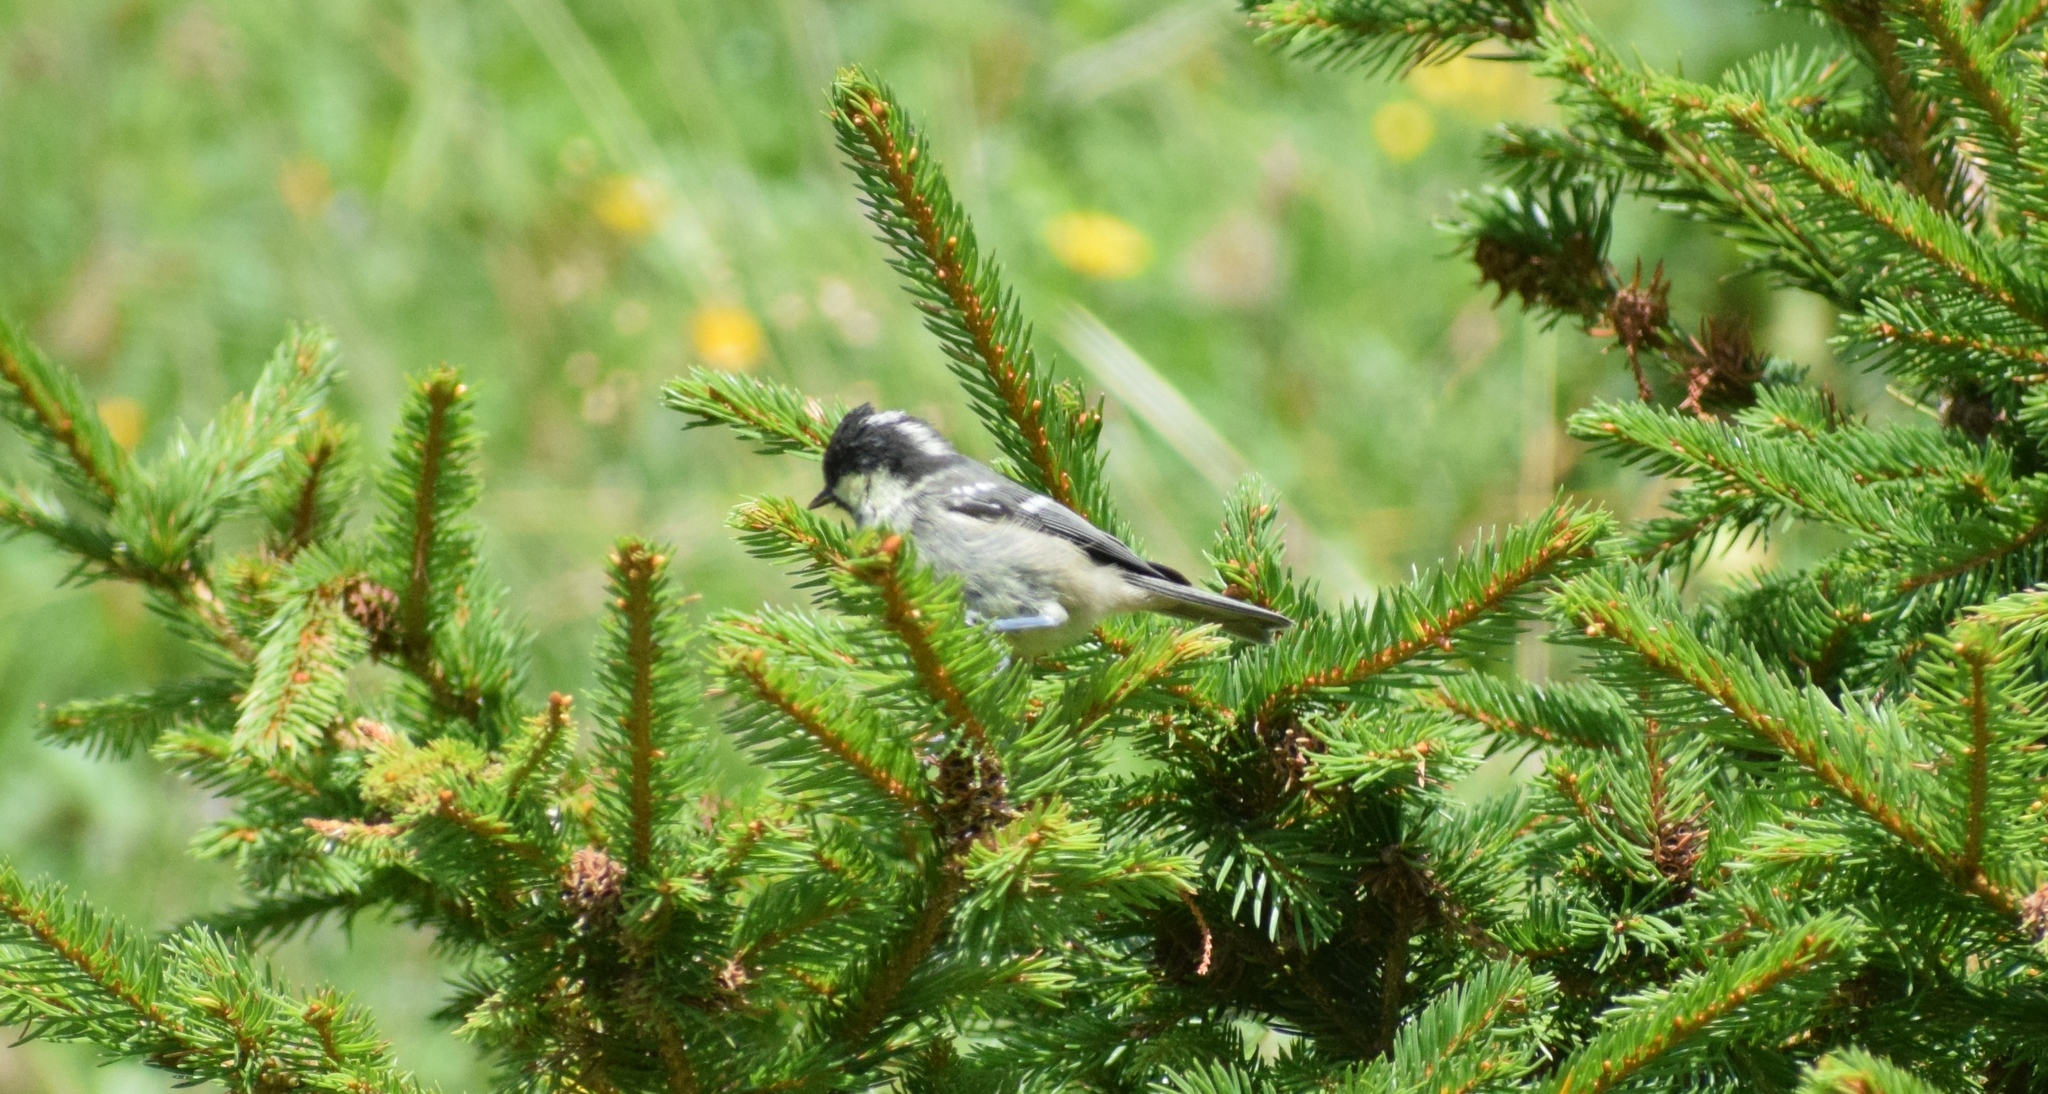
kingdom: Animalia
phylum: Chordata
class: Aves
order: Passeriformes
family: Paridae
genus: Periparus
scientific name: Periparus ater
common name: Coal tit
